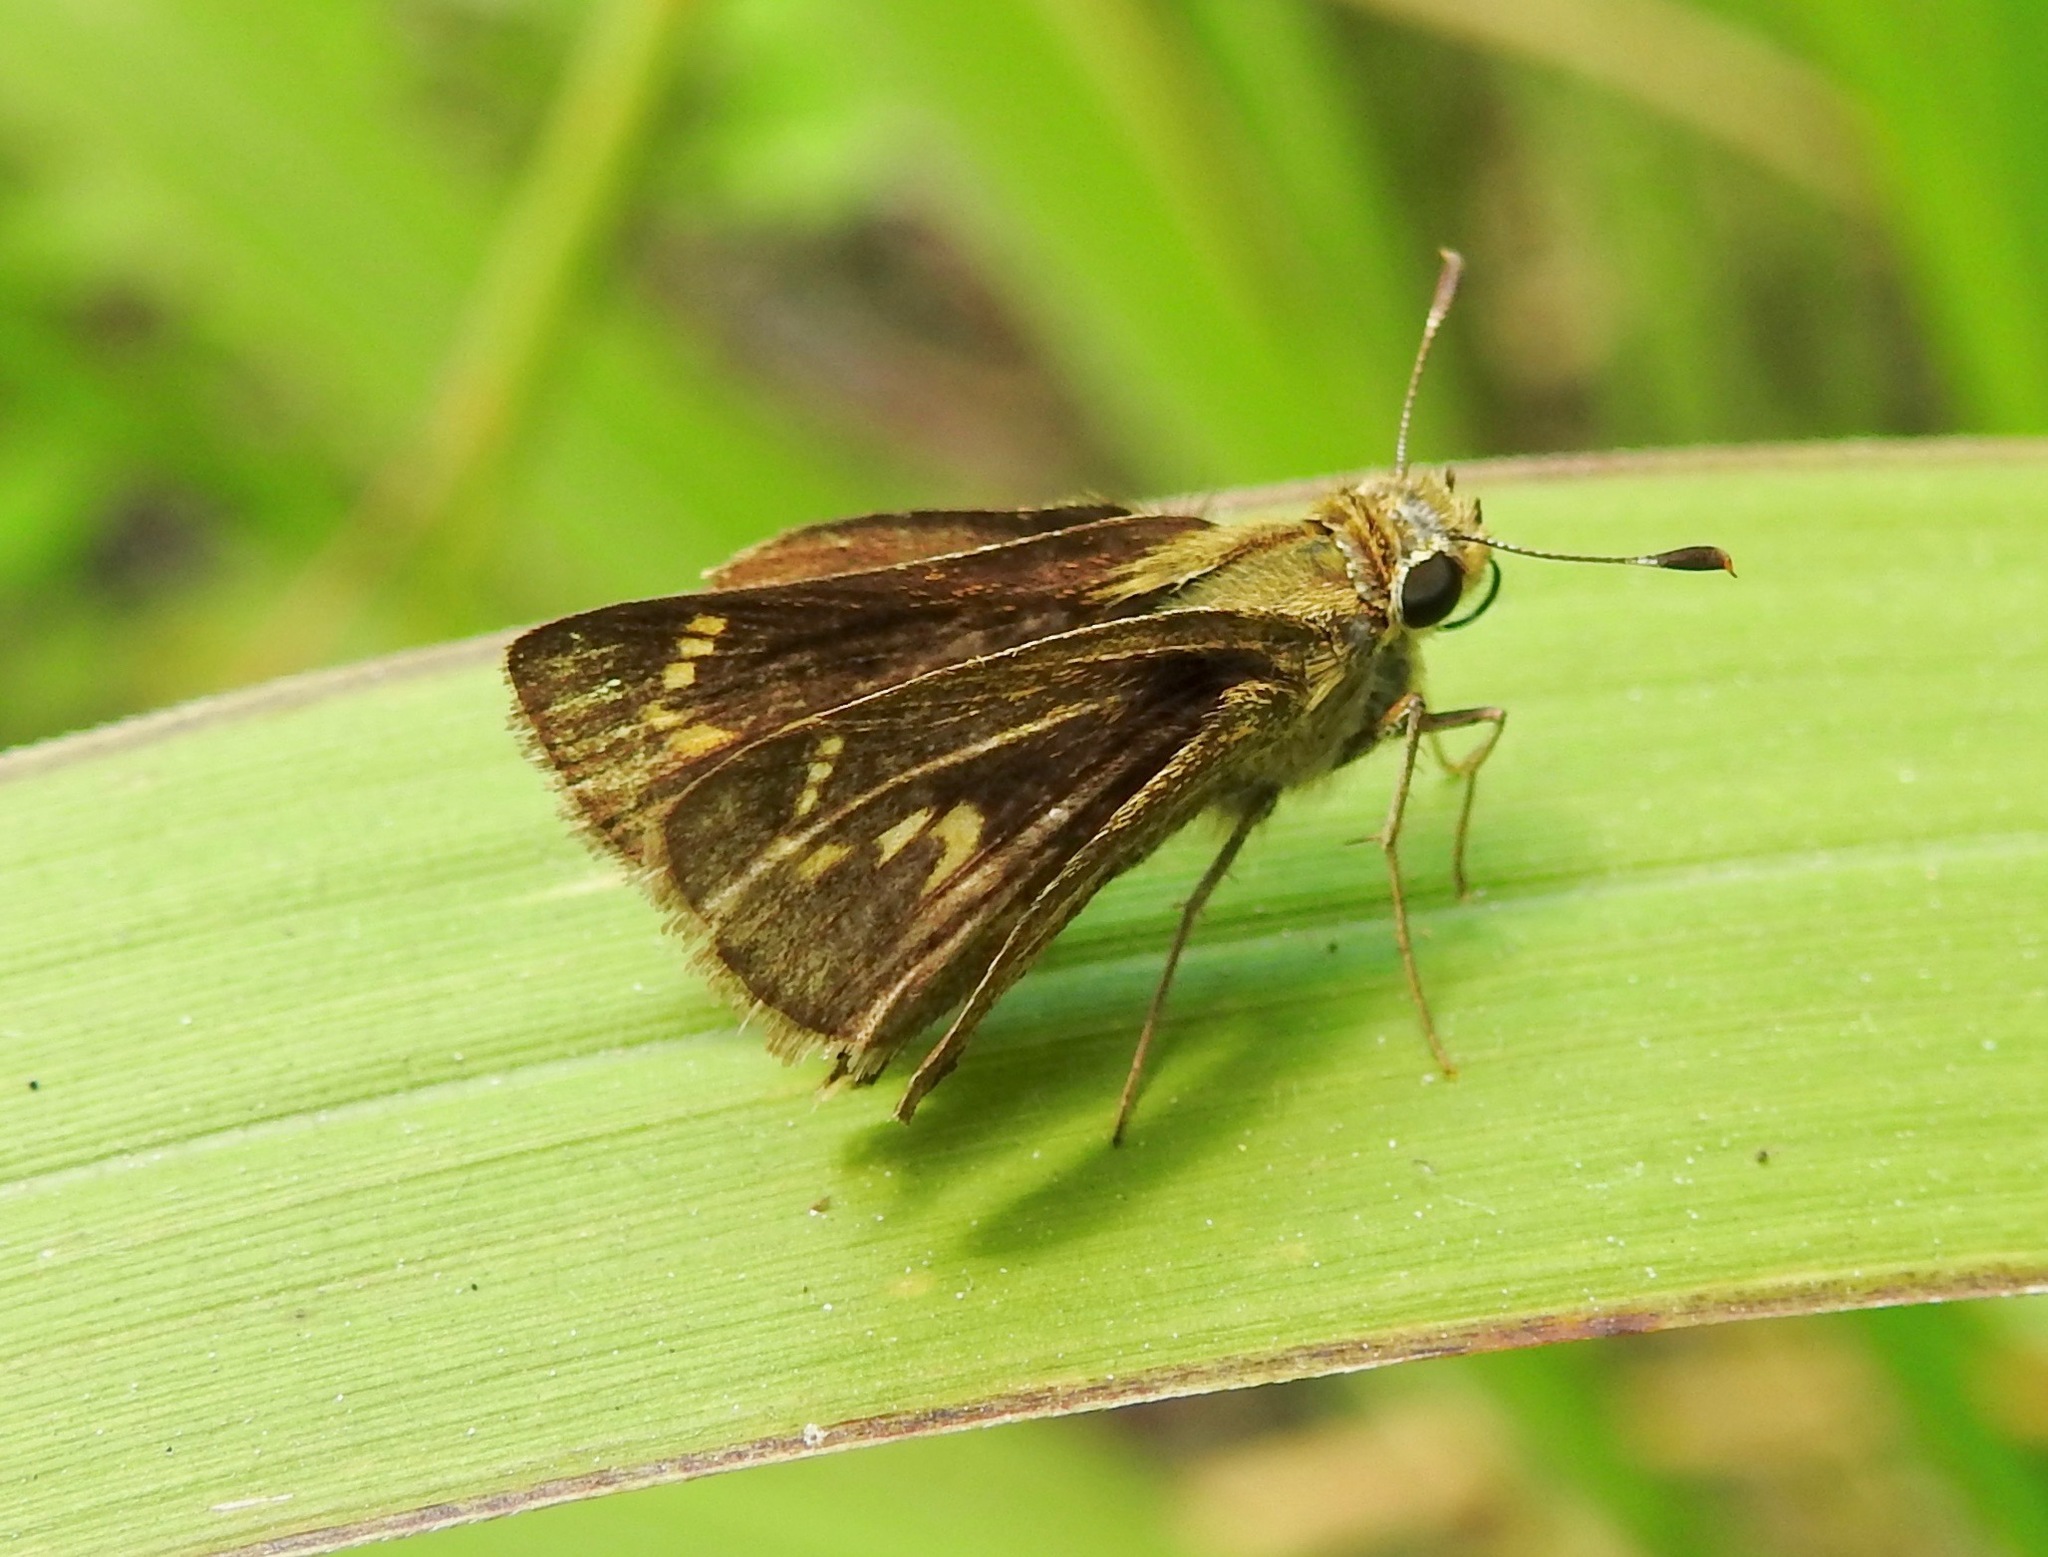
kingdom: Animalia
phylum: Arthropoda
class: Insecta
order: Lepidoptera
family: Hesperiidae
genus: Polites
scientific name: Polites vibex
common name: Whirlabout
